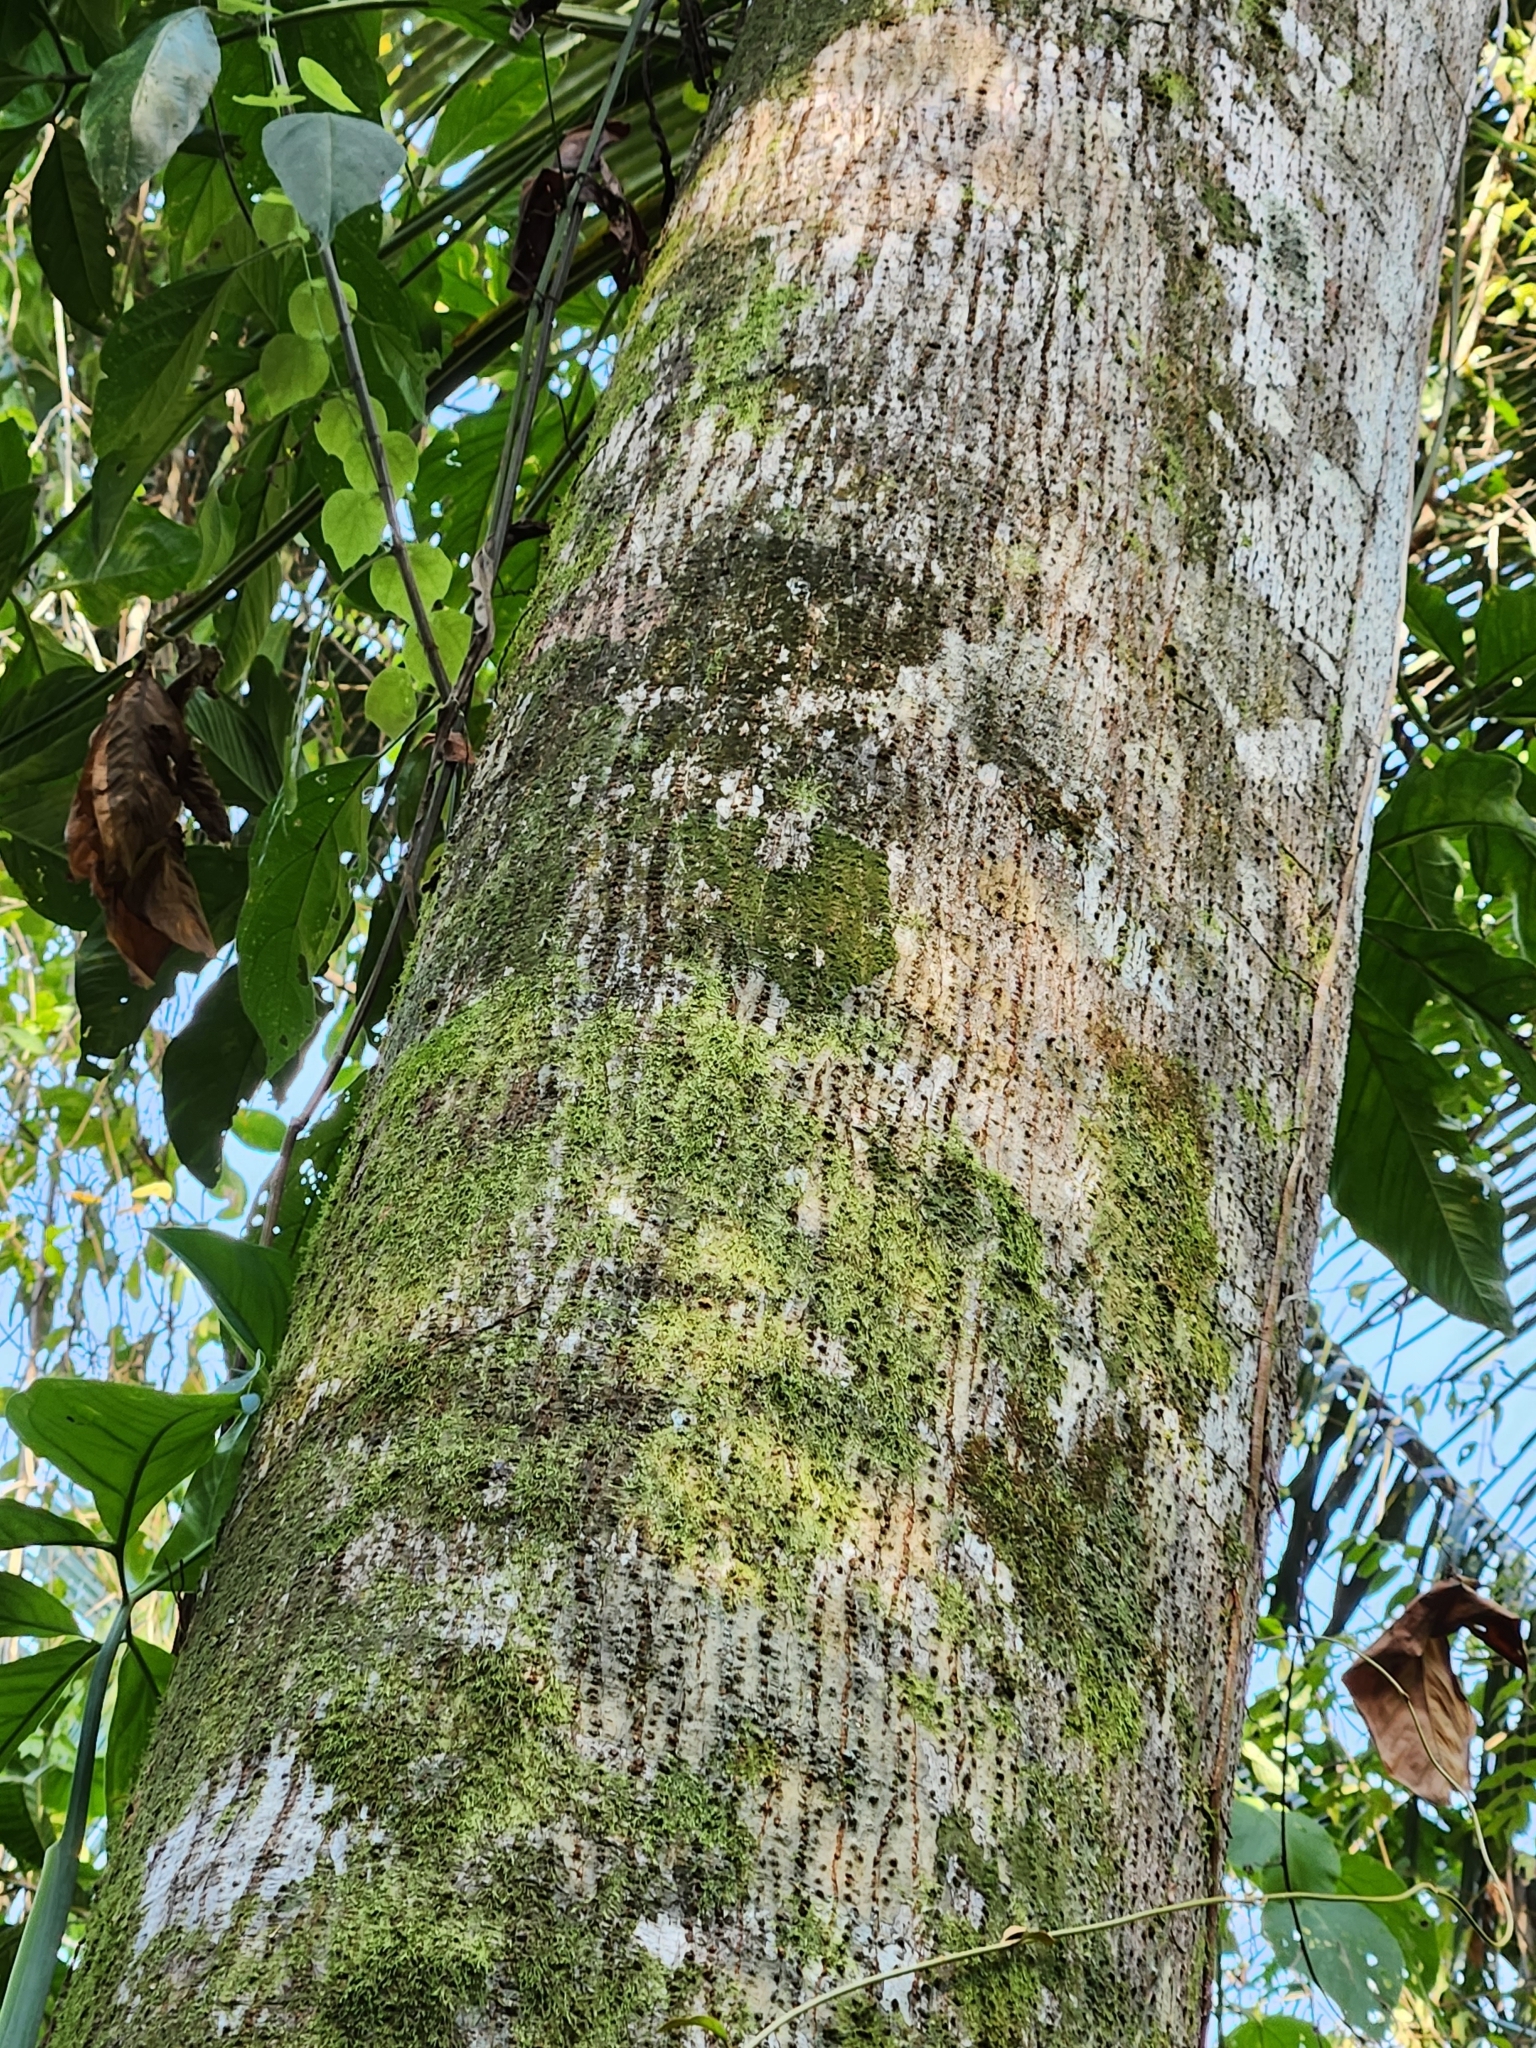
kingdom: Plantae
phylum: Tracheophyta
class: Magnoliopsida
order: Rosales
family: Moraceae
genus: Castilla
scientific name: Castilla elastica
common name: Castilla rubber
